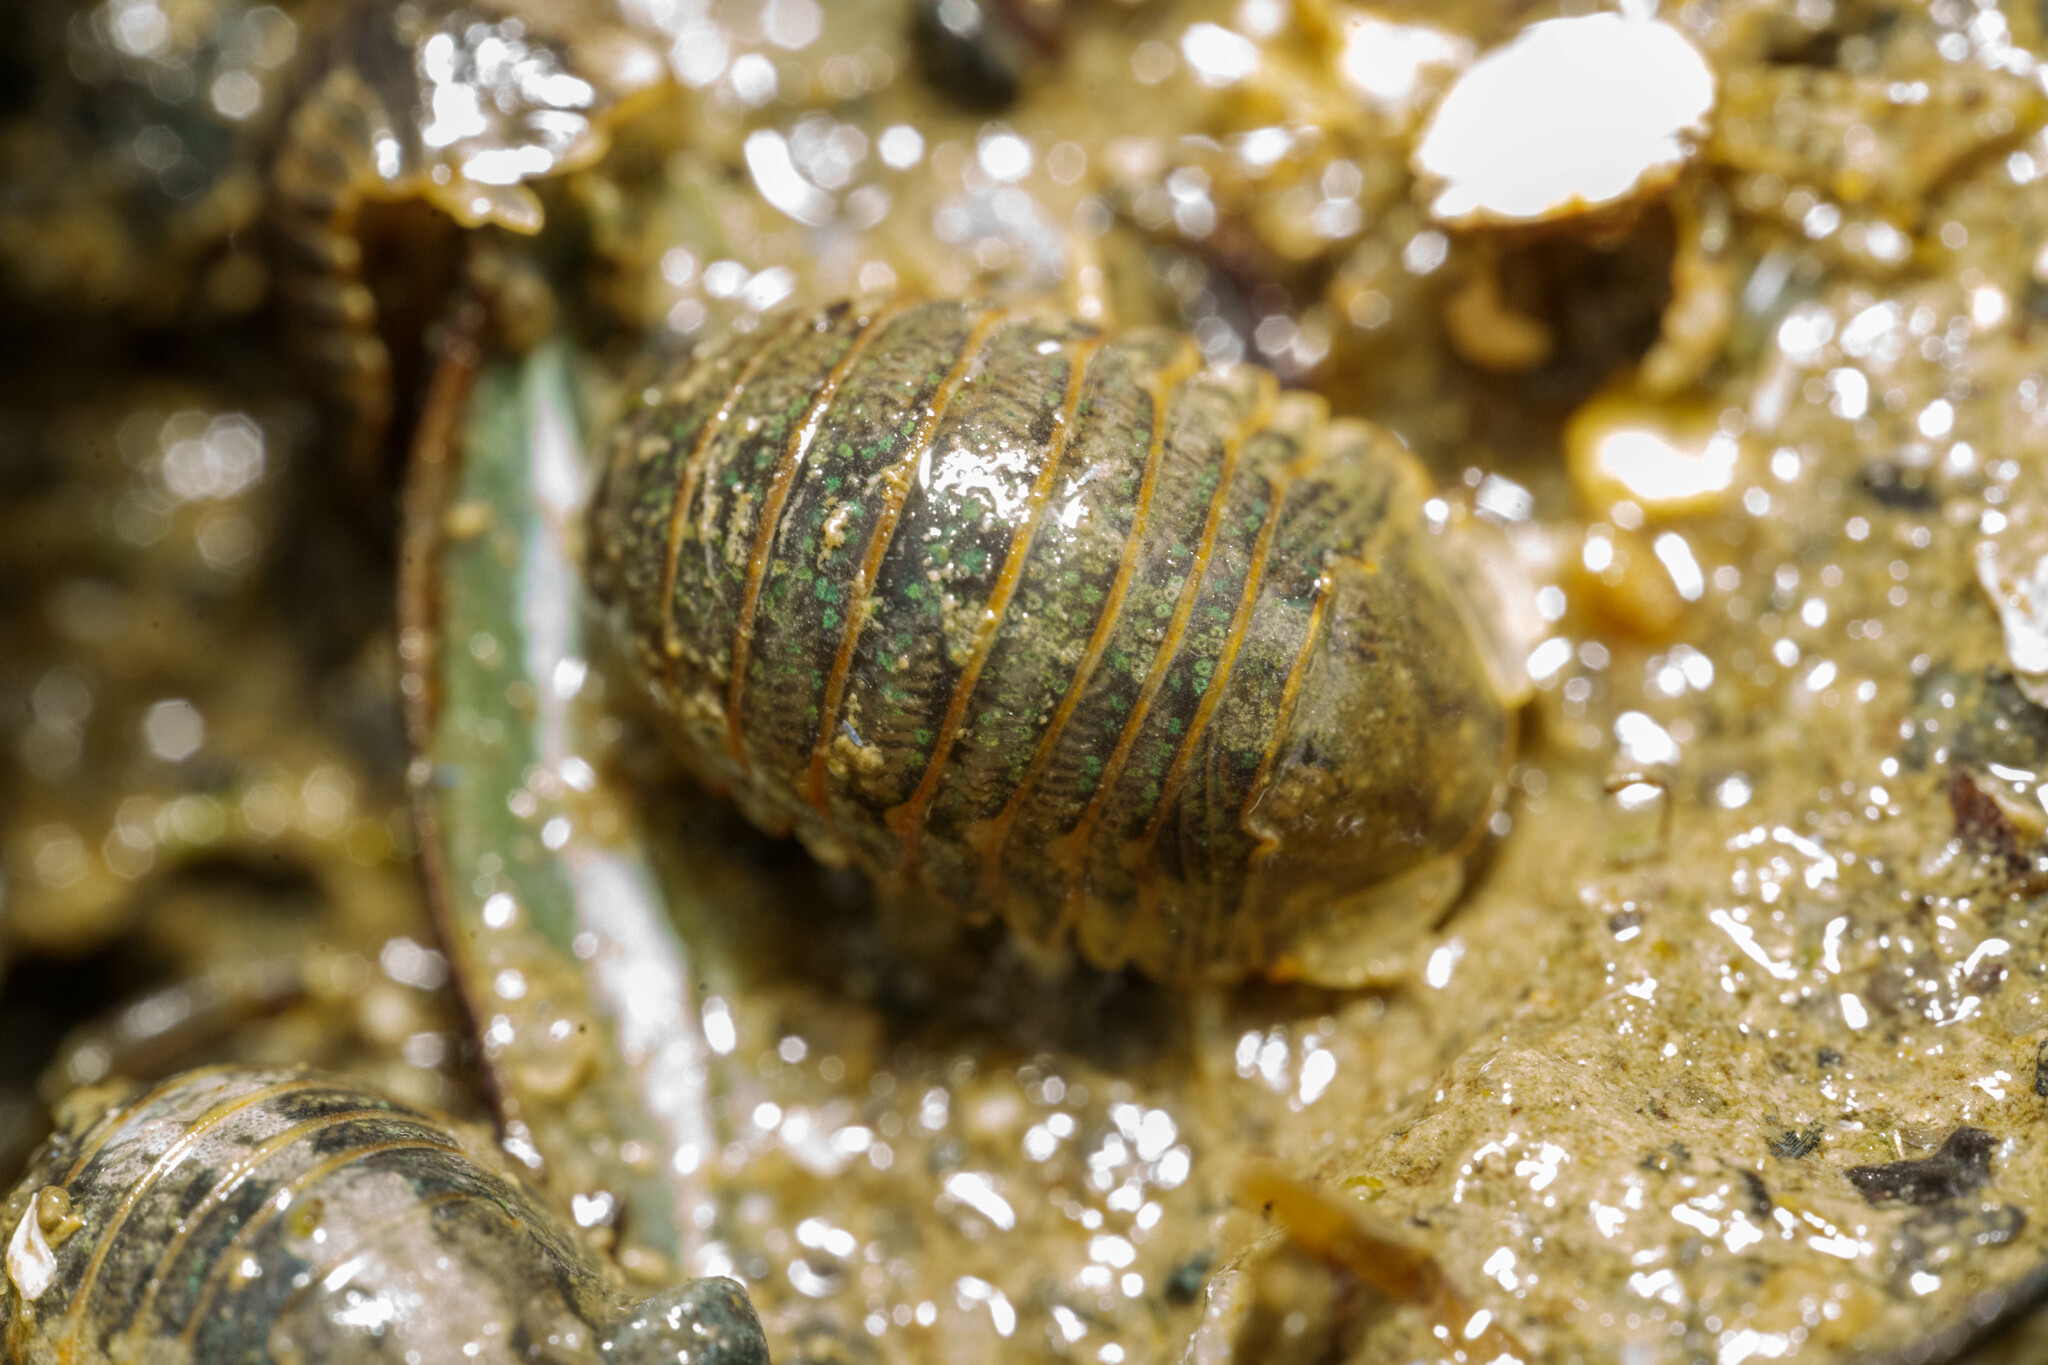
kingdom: Animalia
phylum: Arthropoda
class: Malacostraca
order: Isopoda
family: Sphaeromatidae
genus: Gnorimosphaeroma
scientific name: Gnorimosphaeroma oregonense
